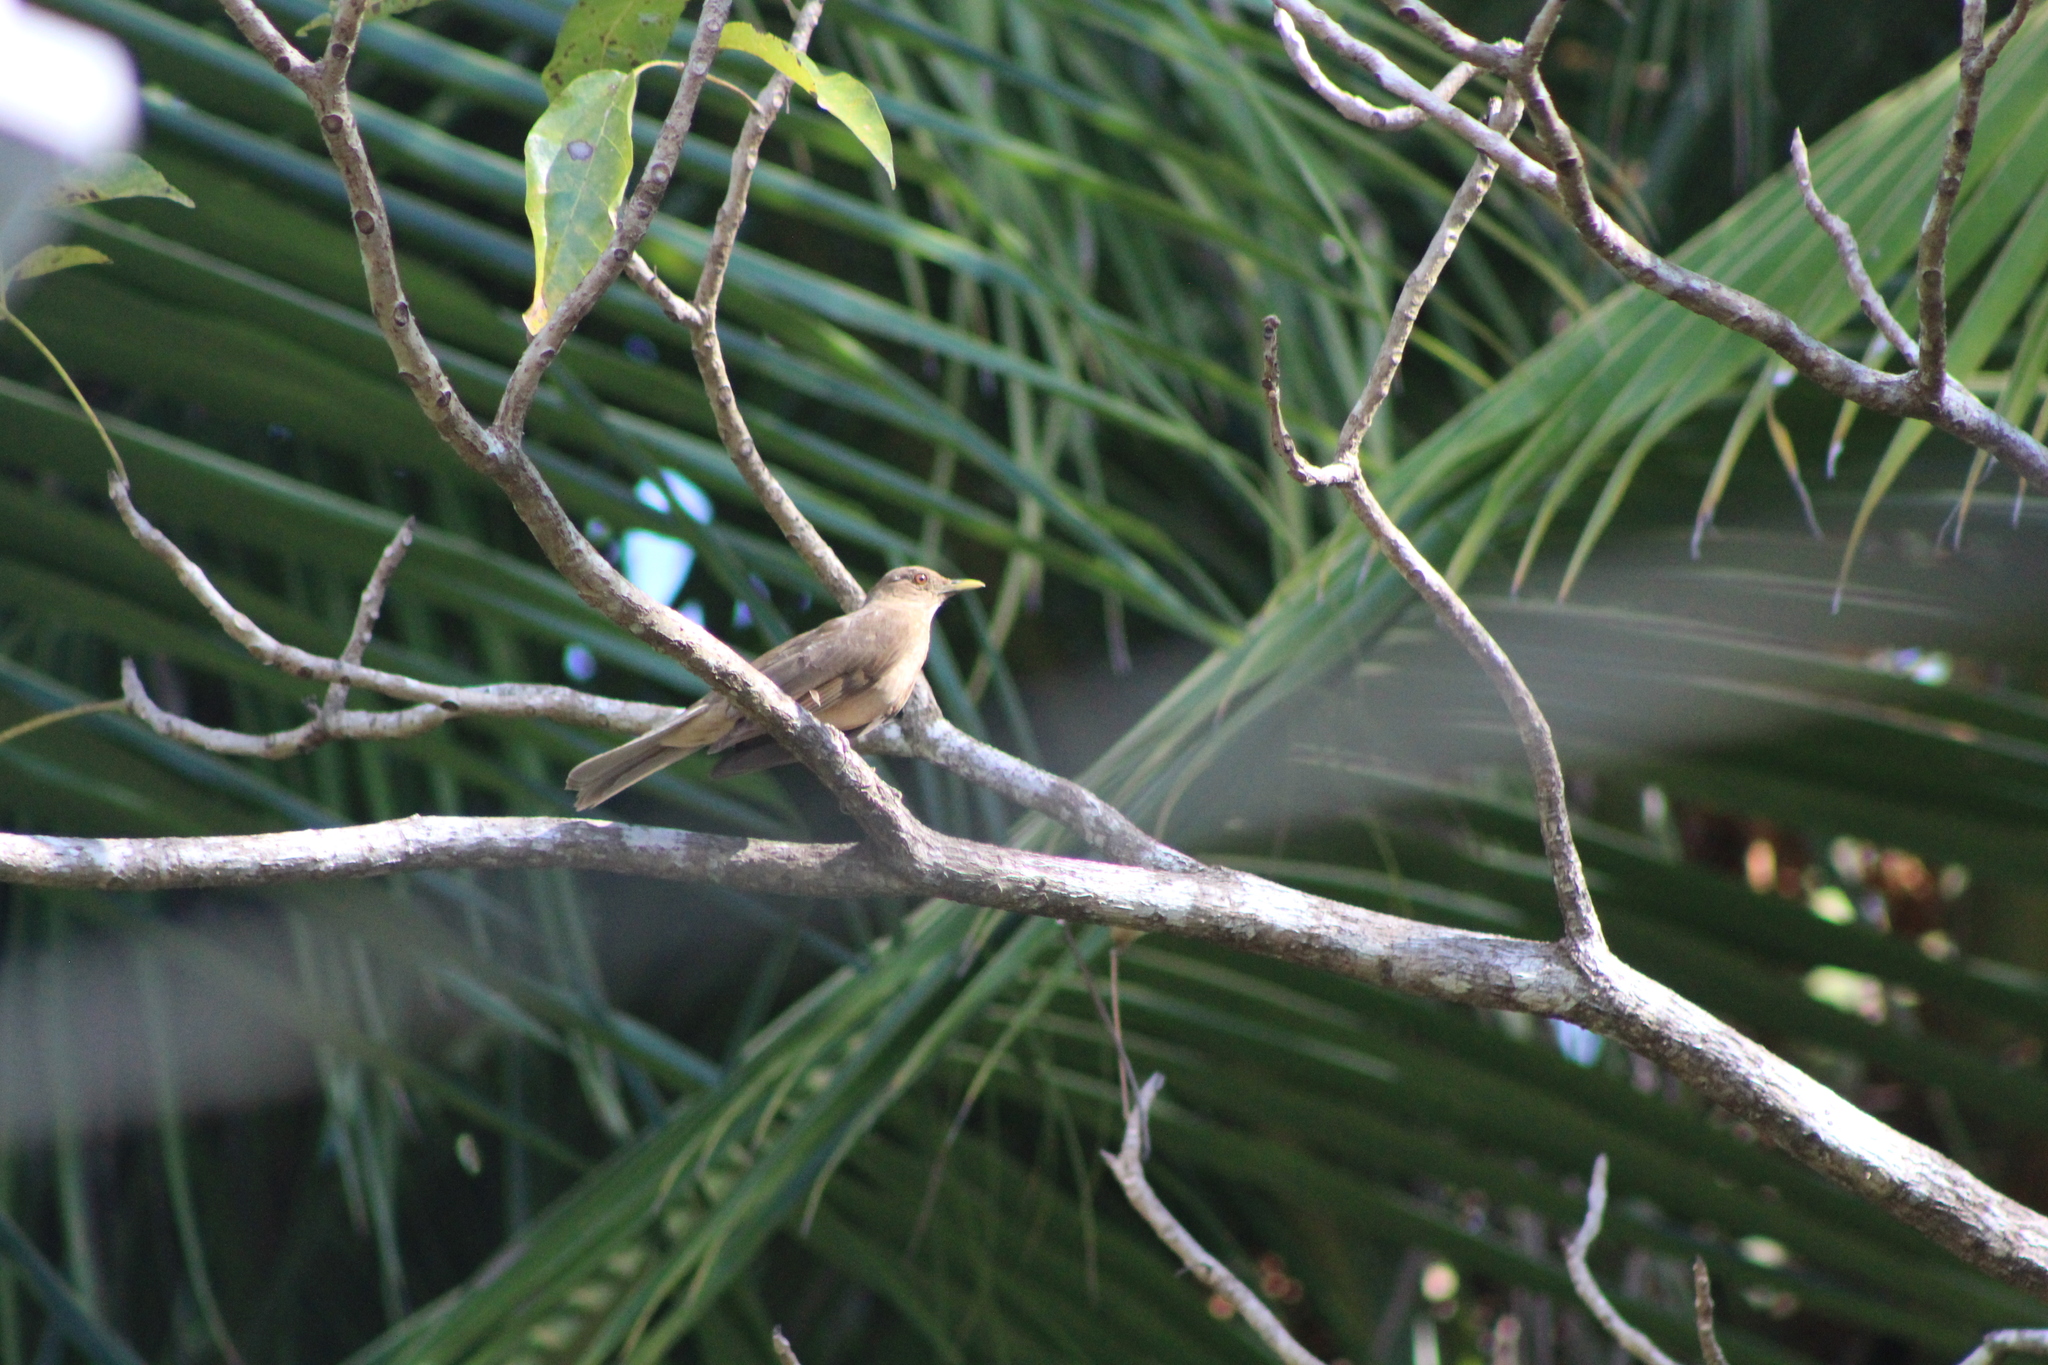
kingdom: Animalia
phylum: Chordata
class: Aves
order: Passeriformes
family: Turdidae
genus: Turdus
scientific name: Turdus grayi
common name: Clay-colored thrush
